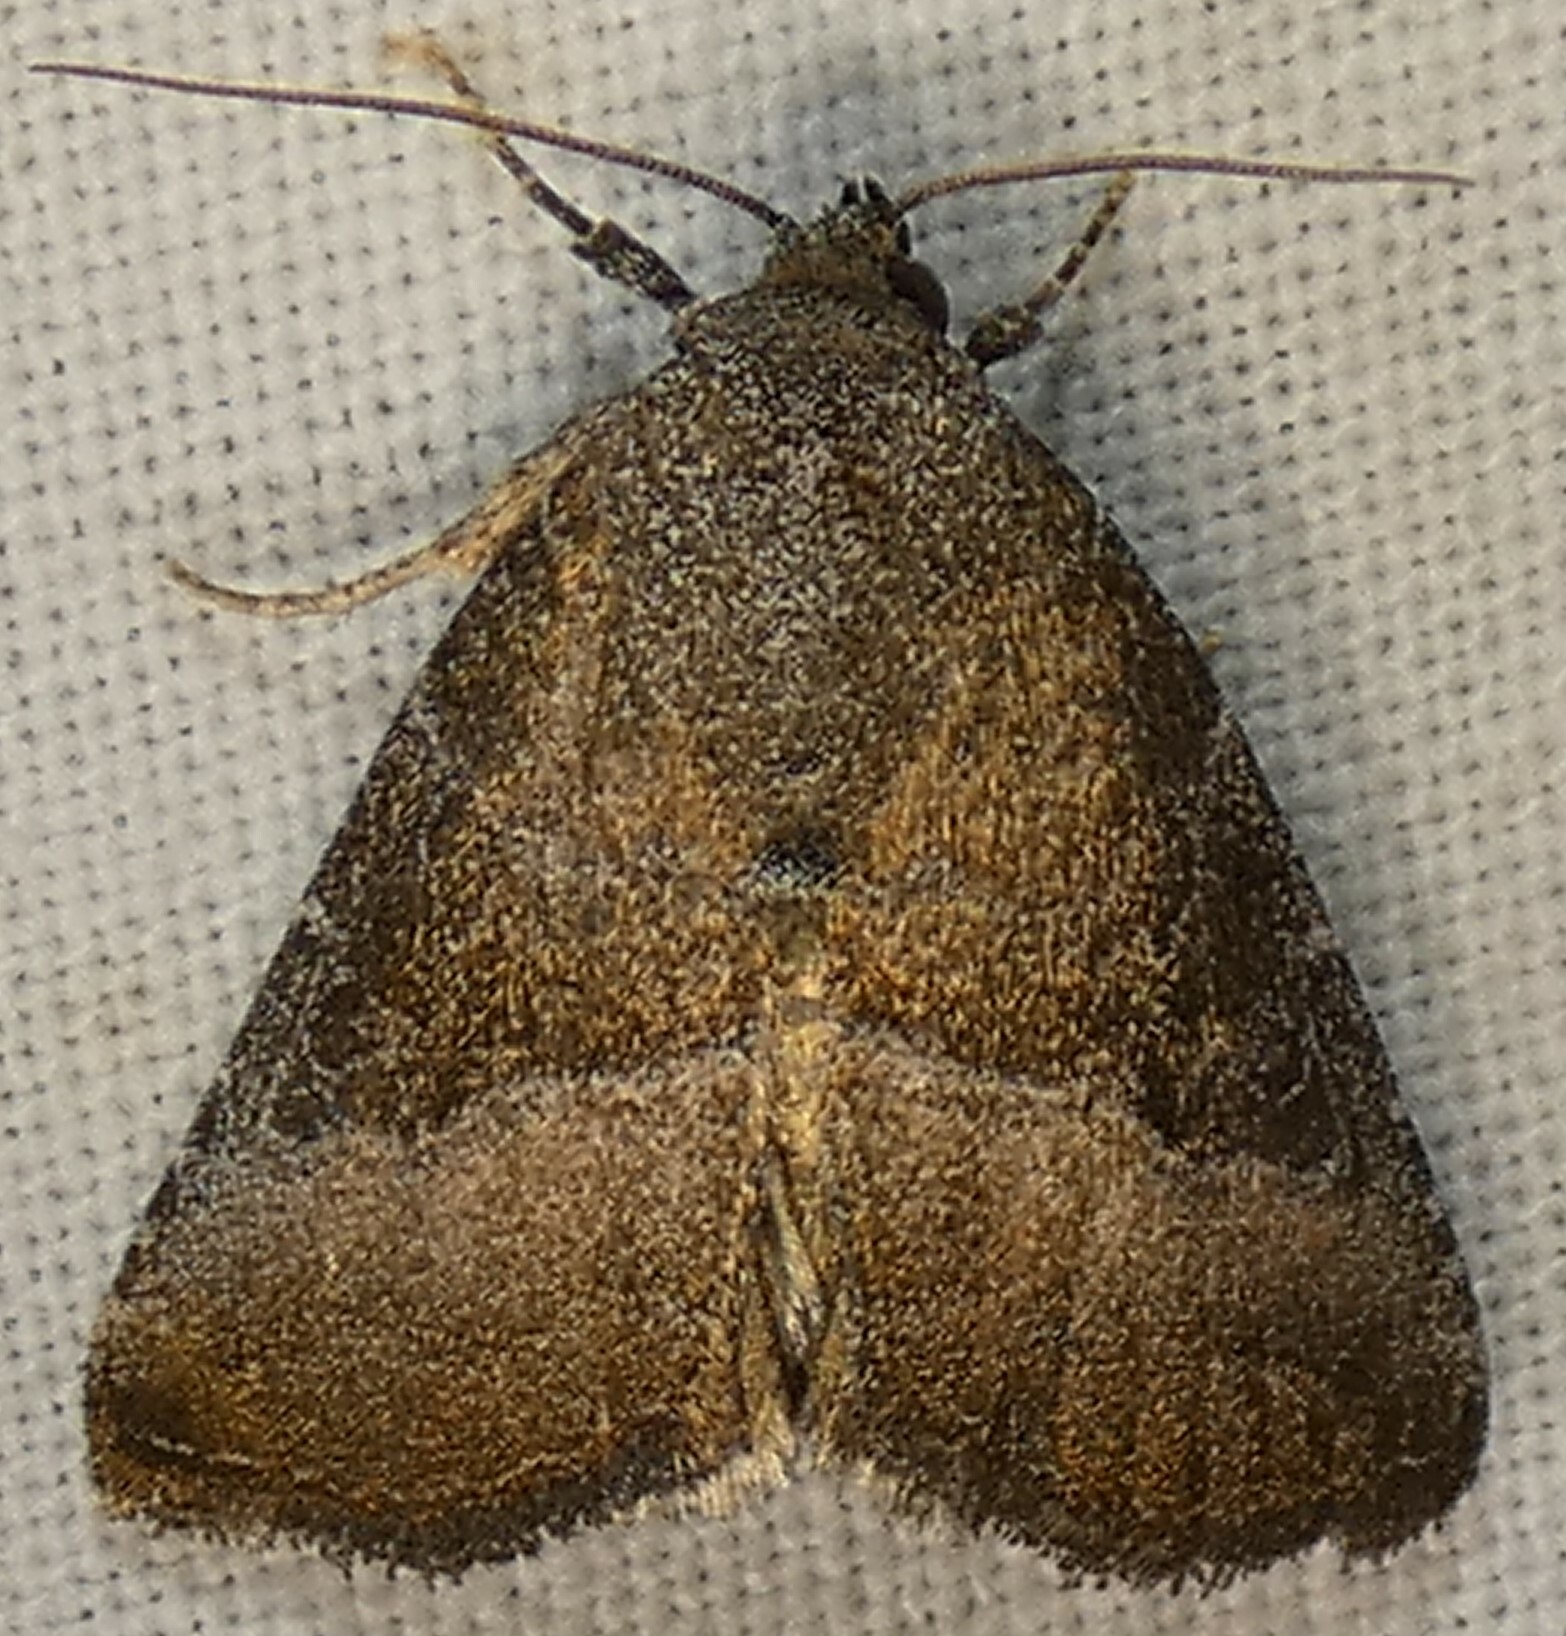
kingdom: Animalia
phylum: Arthropoda
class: Insecta
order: Lepidoptera
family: Noctuidae
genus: Ogdoconta
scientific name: Ogdoconta cinereola
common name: Common pinkband
